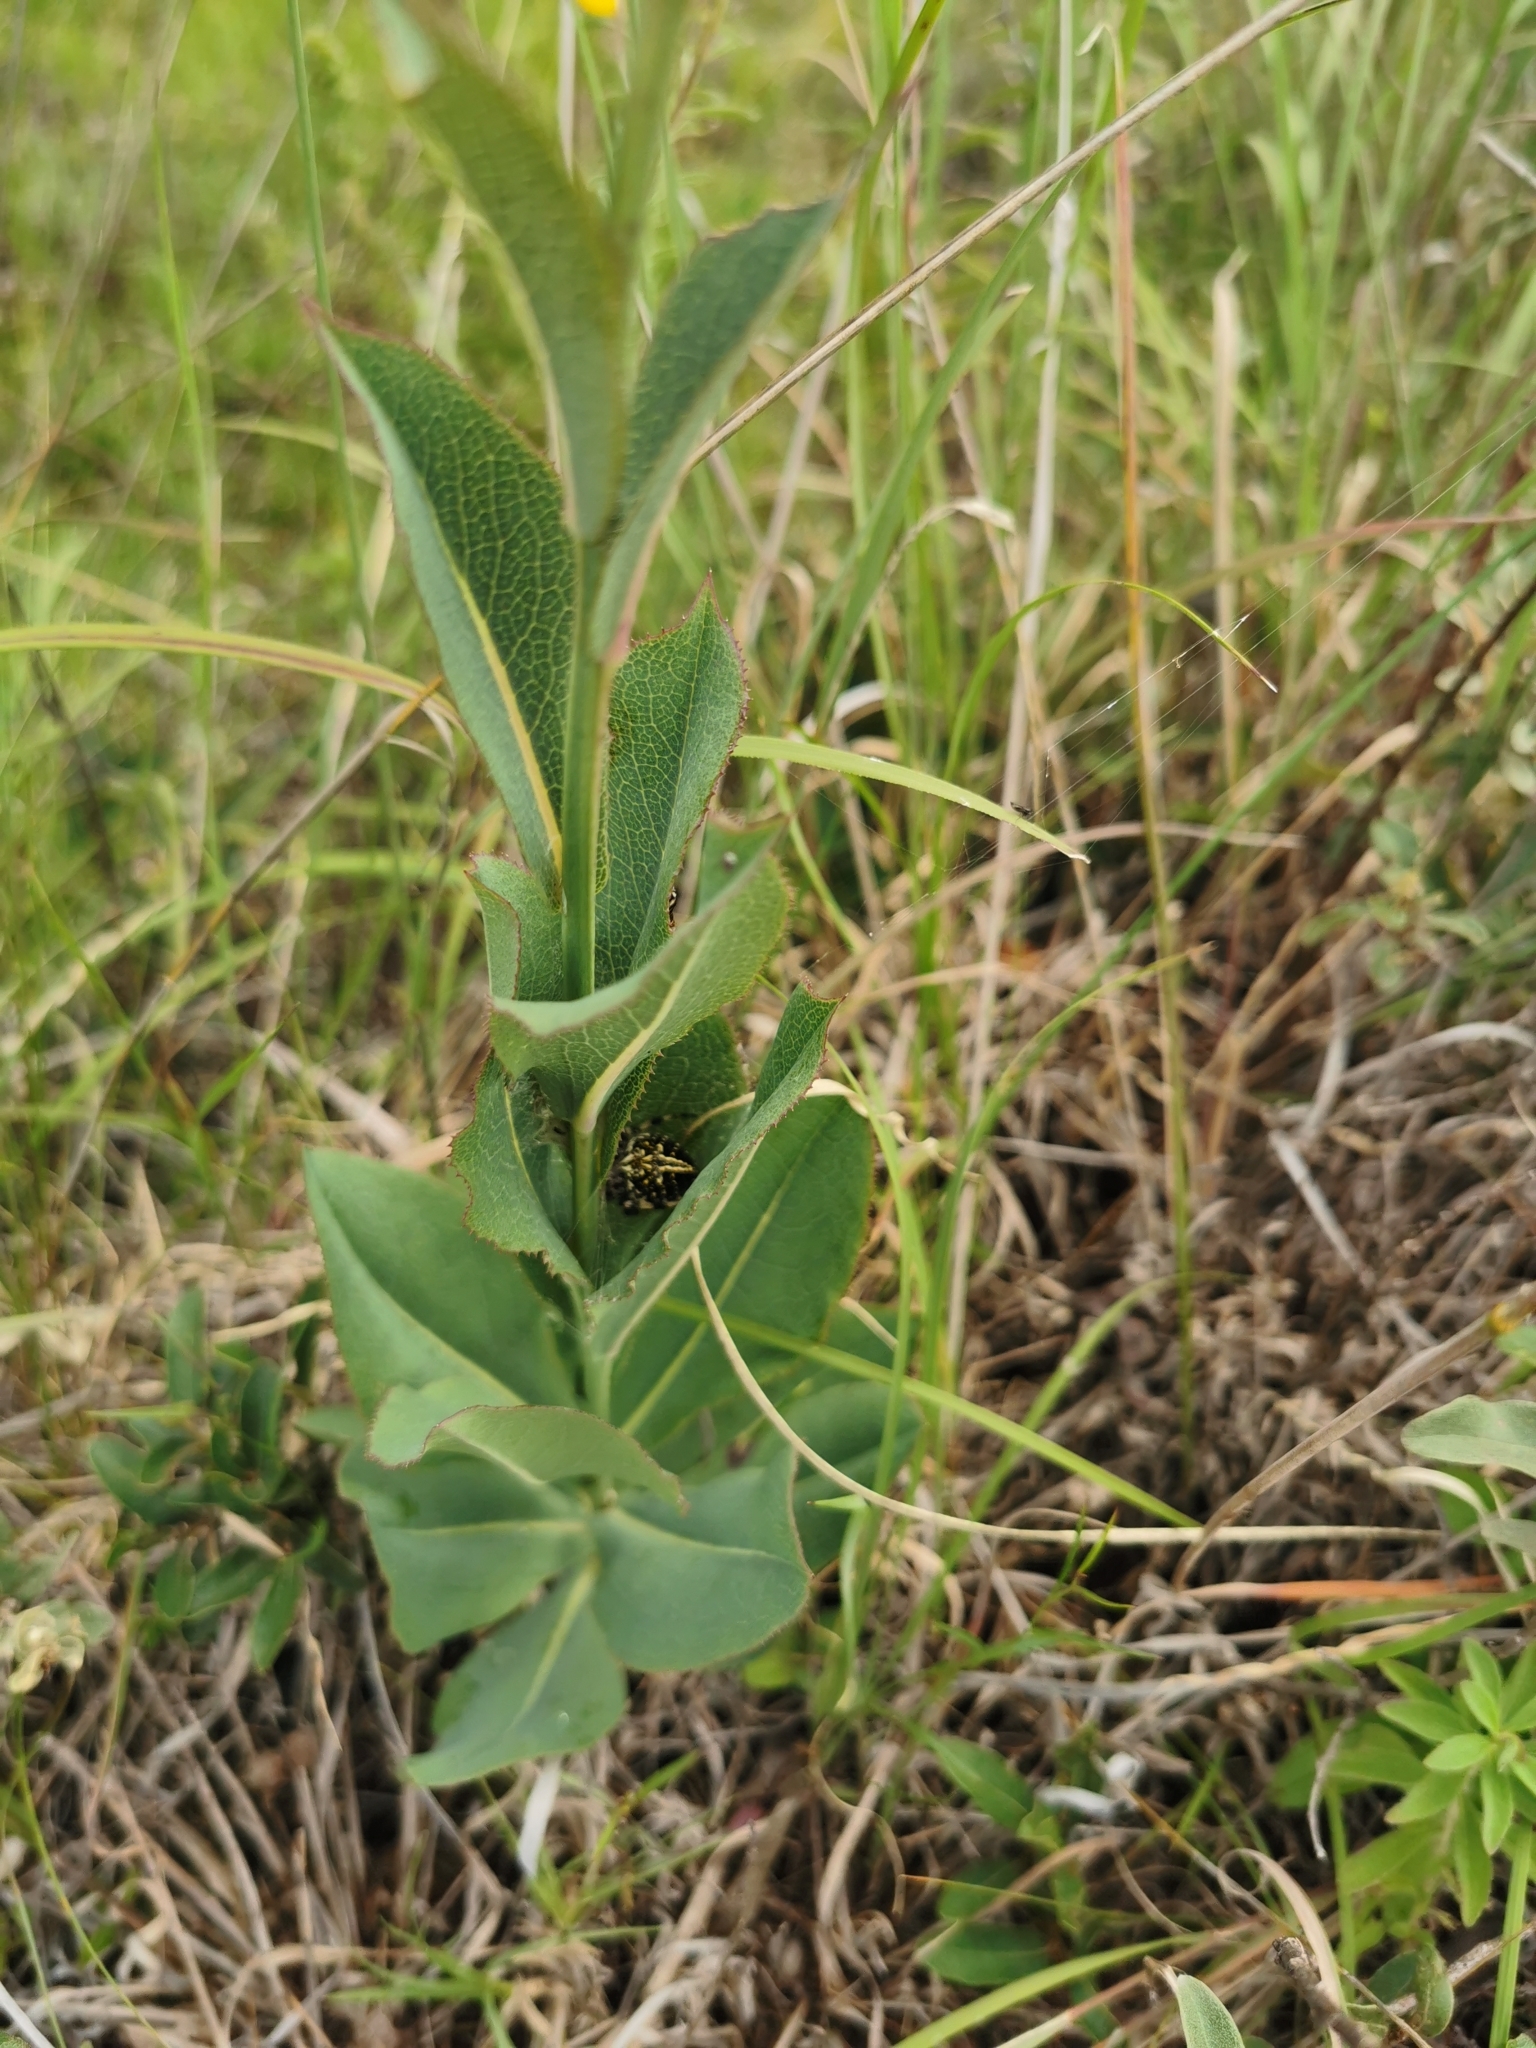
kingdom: Animalia
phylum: Arthropoda
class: Arachnida
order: Araneae
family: Araneidae
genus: Neoscona
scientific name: Neoscona orizabensis
